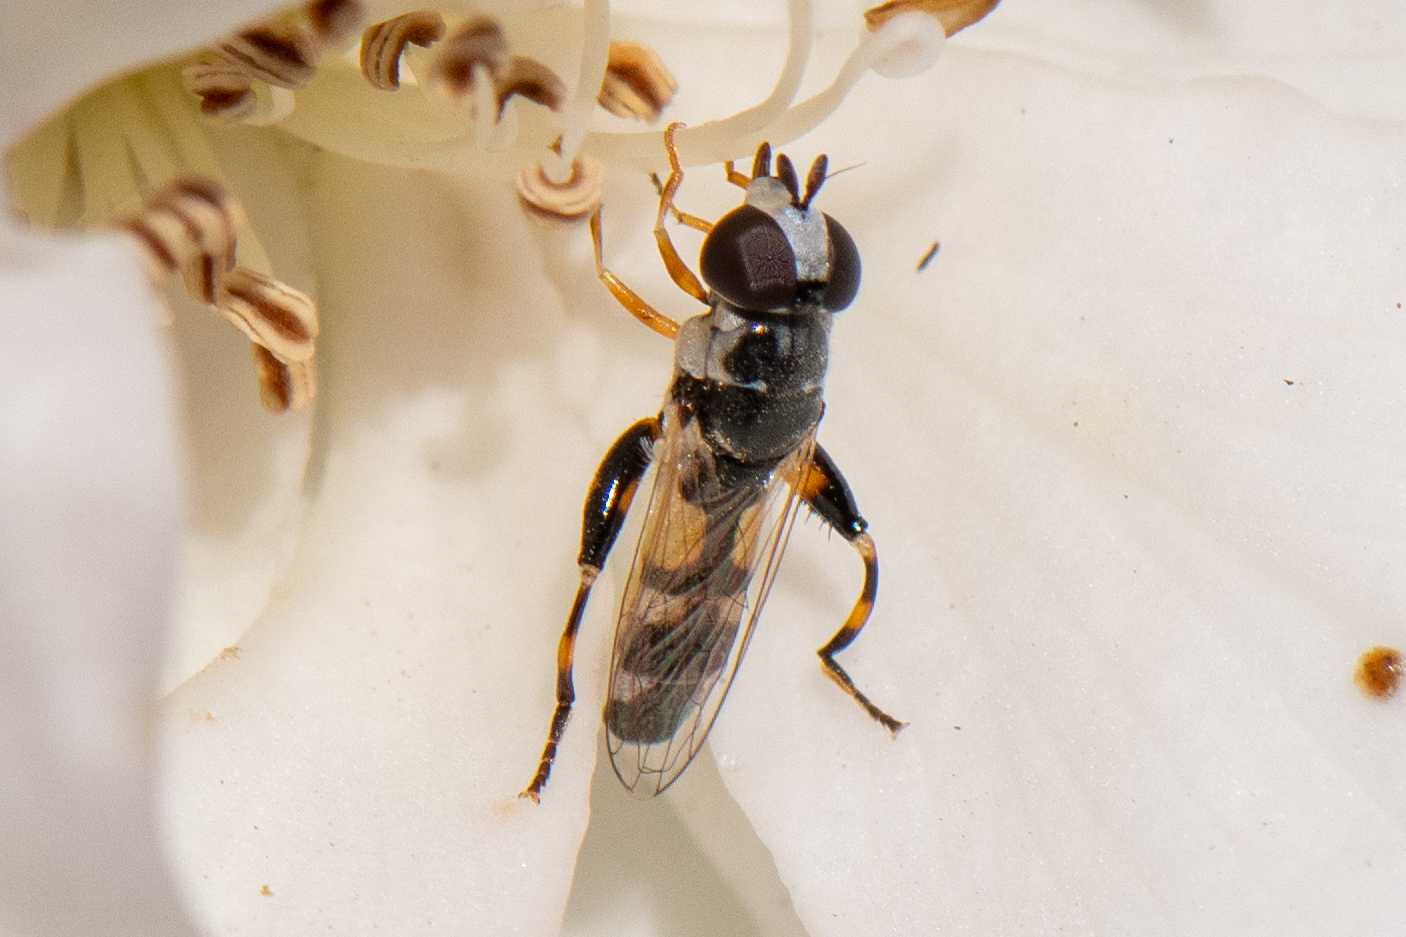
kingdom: Animalia
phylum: Arthropoda
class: Insecta
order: Diptera
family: Syrphidae
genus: Syritta
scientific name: Syritta flaviventris
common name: Syrphid fly
